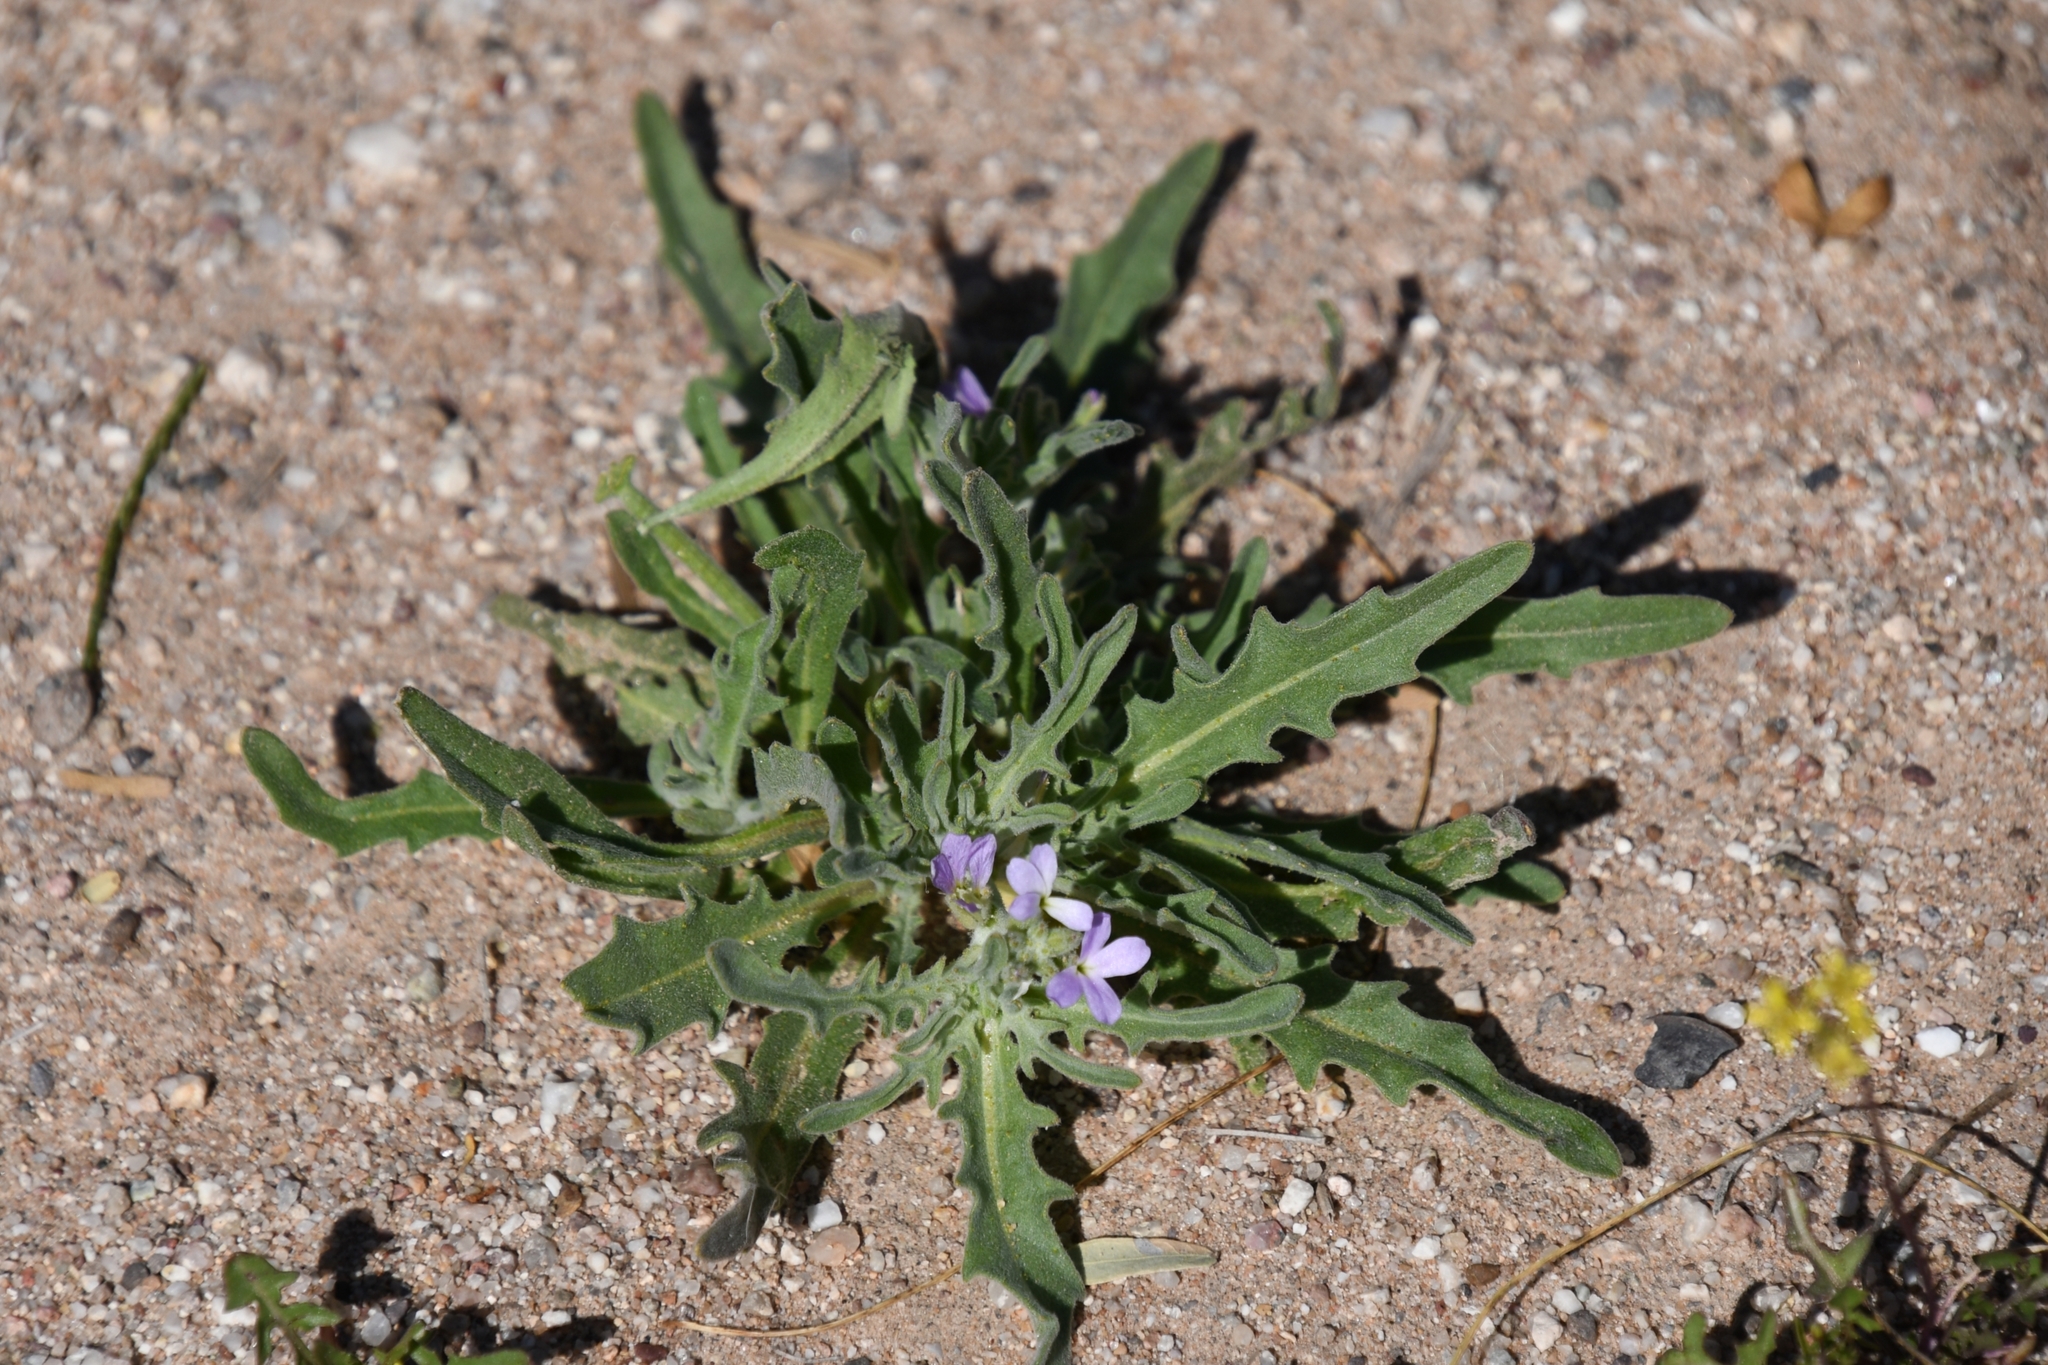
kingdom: Plantae
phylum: Tracheophyta
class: Magnoliopsida
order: Brassicales
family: Brassicaceae
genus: Matthiola
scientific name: Matthiola parviflora
